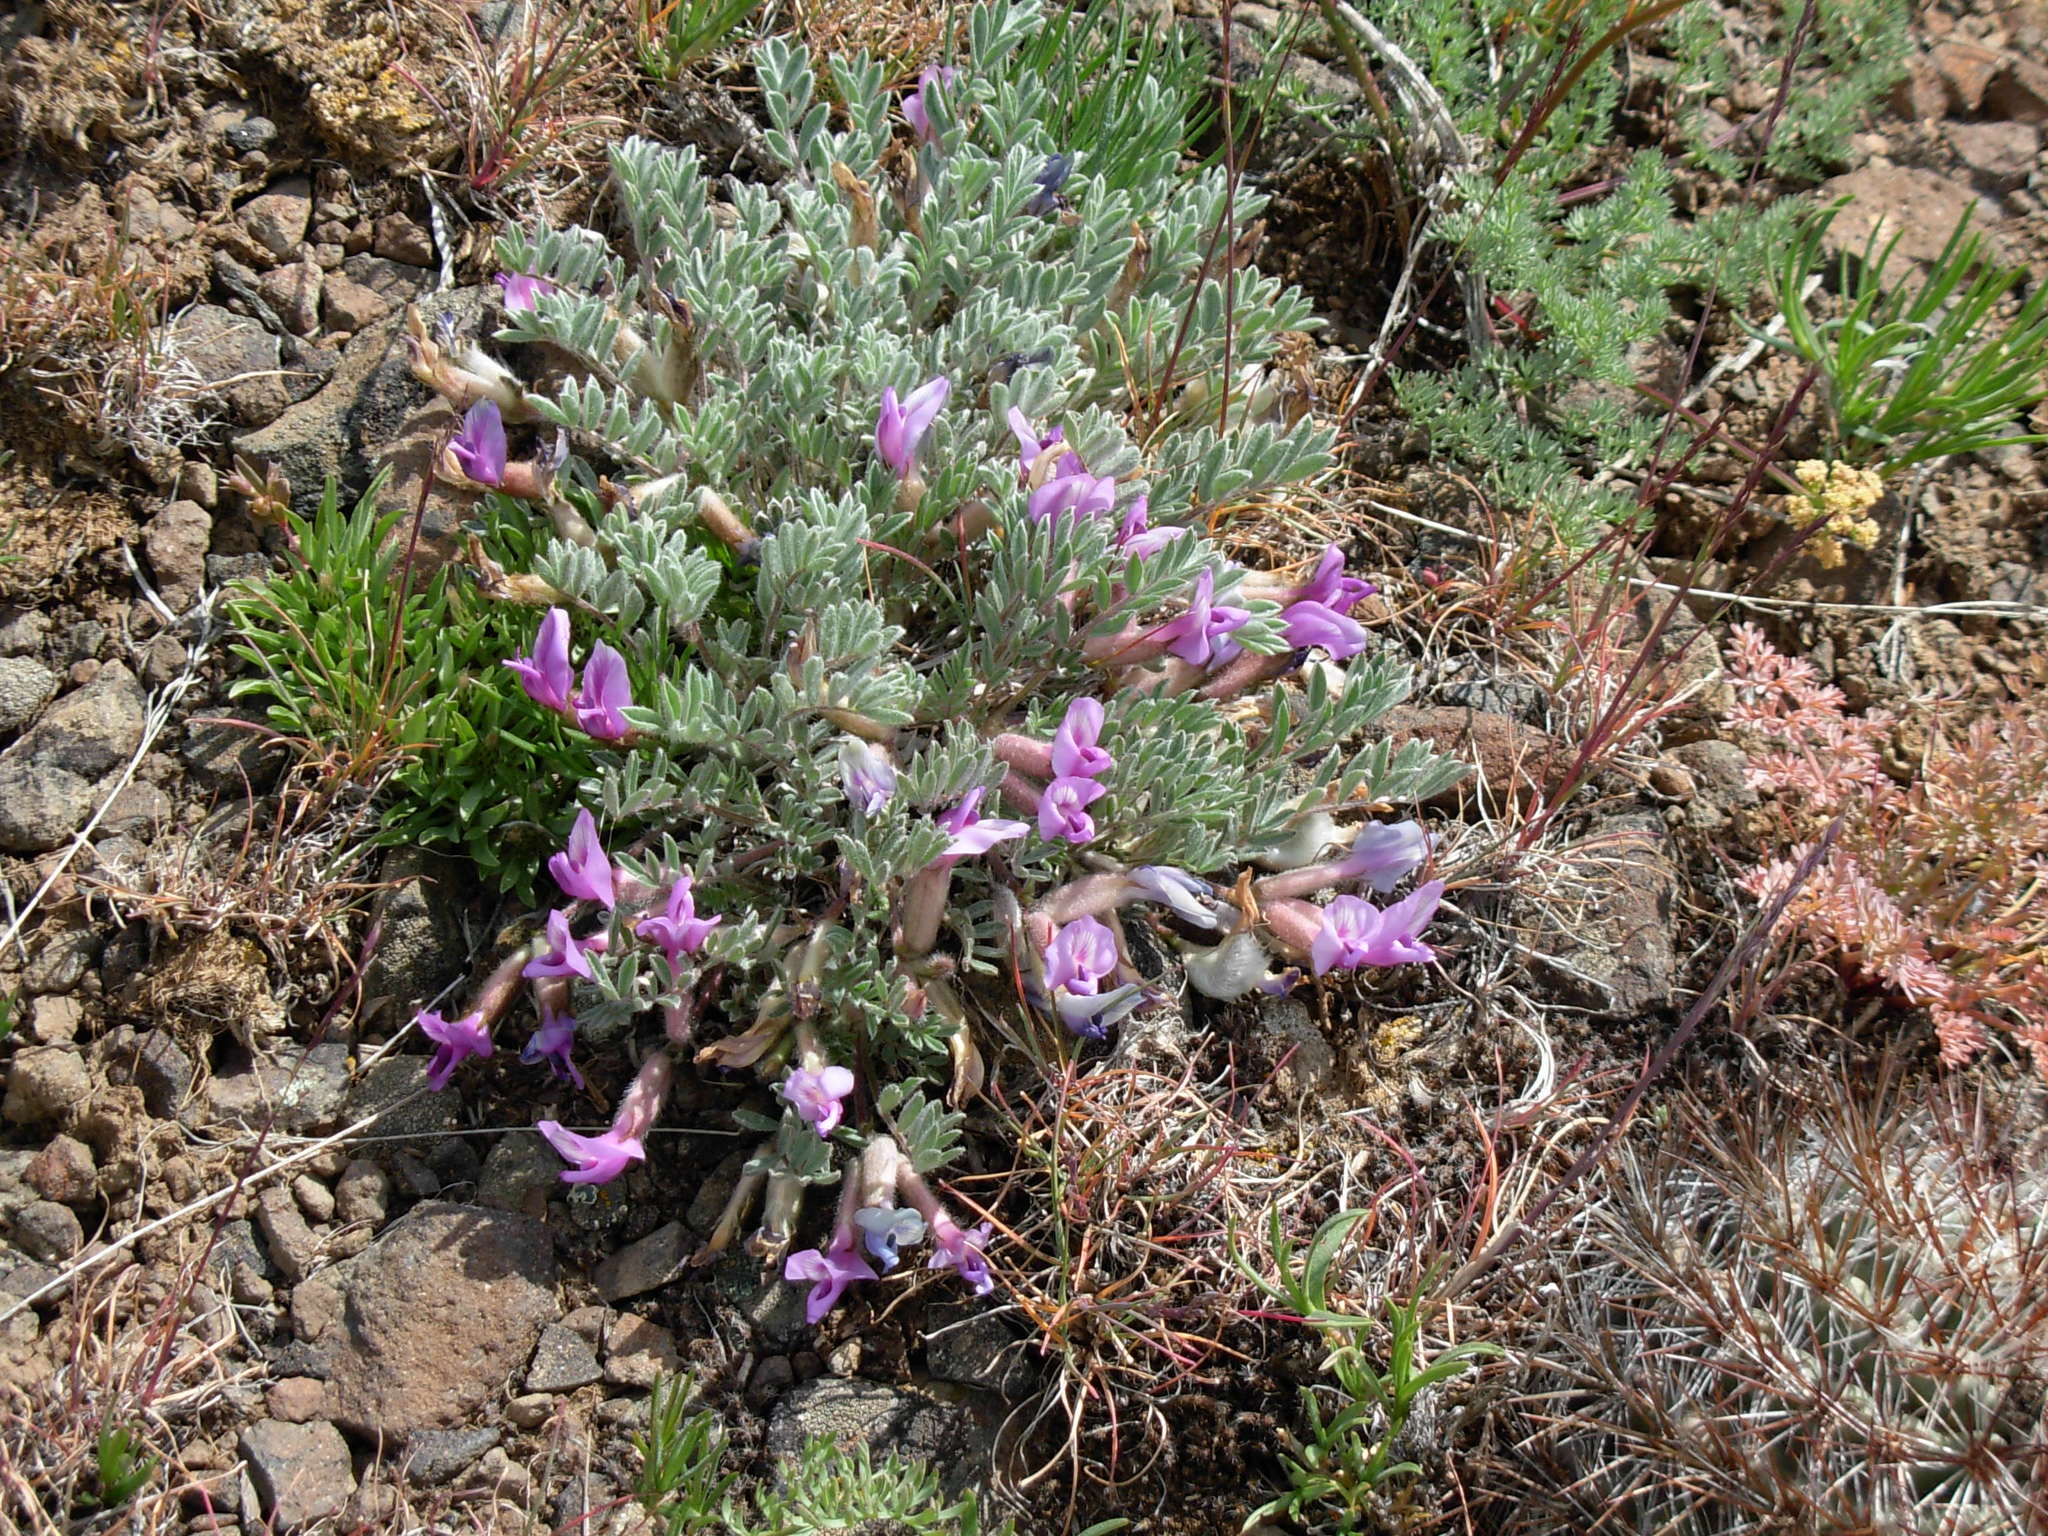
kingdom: Plantae
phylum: Tracheophyta
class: Magnoliopsida
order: Fabales
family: Fabaceae
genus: Astragalus
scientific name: Astragalus purshii
